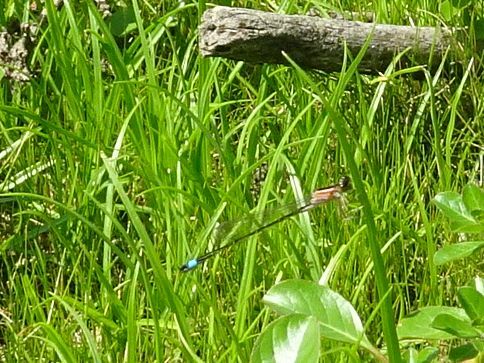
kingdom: Animalia
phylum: Arthropoda
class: Insecta
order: Odonata
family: Coenagrionidae
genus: Ischnura
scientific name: Ischnura elegans
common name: Blue-tailed damselfly
